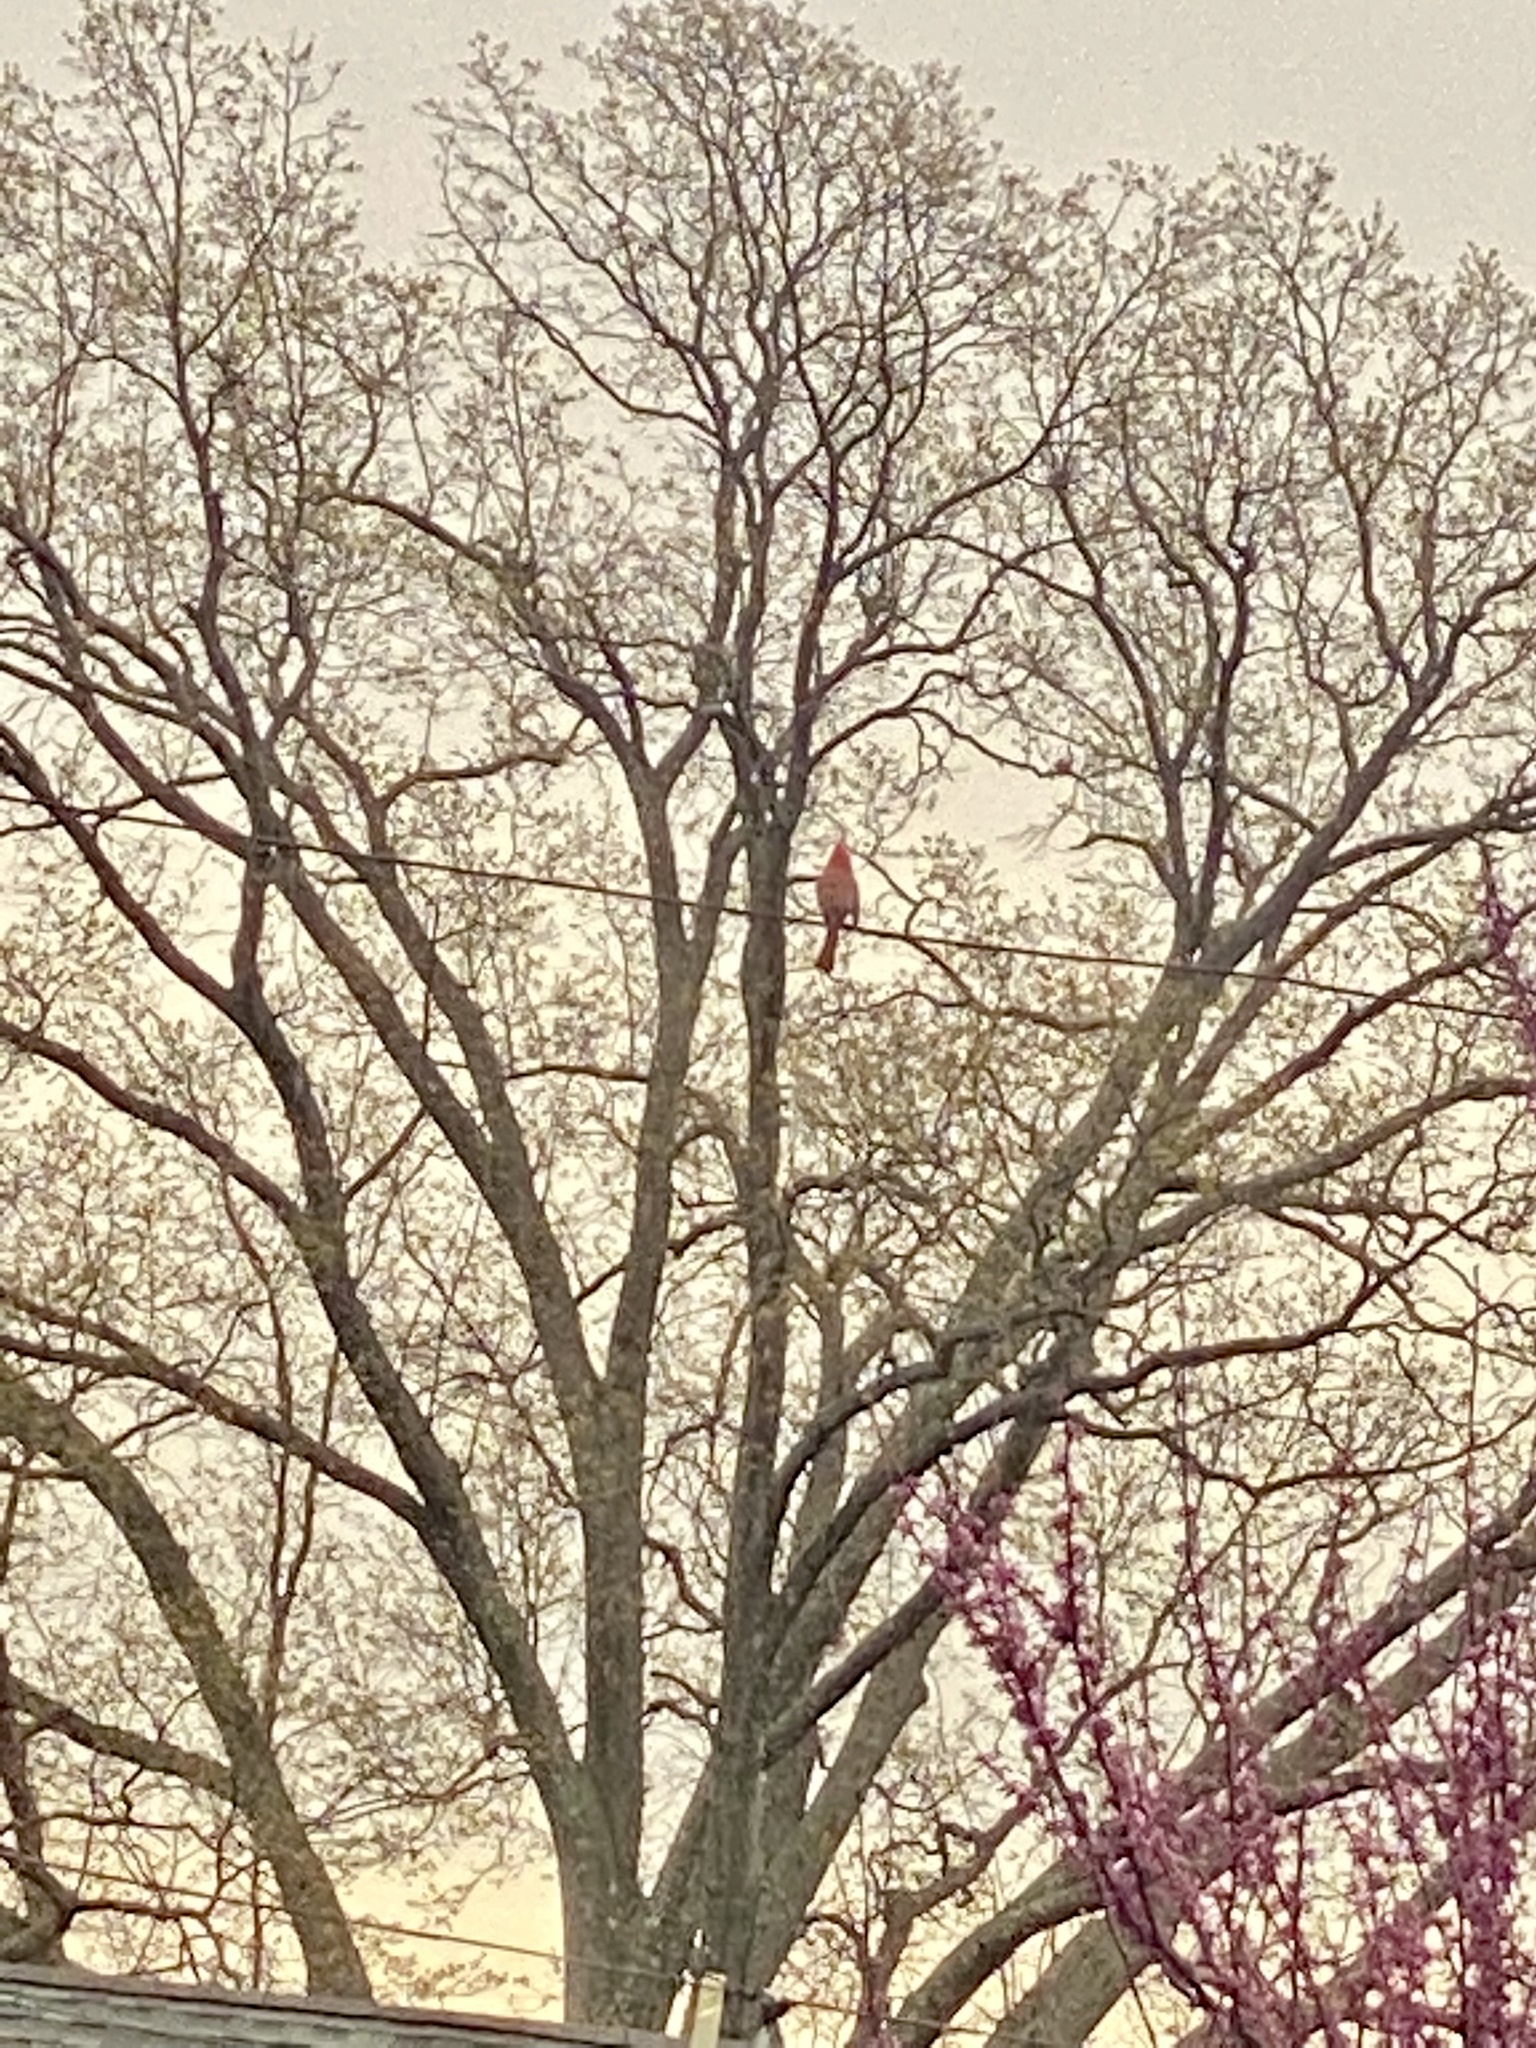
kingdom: Animalia
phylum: Chordata
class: Aves
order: Passeriformes
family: Cardinalidae
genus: Cardinalis
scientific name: Cardinalis cardinalis
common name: Northern cardinal
